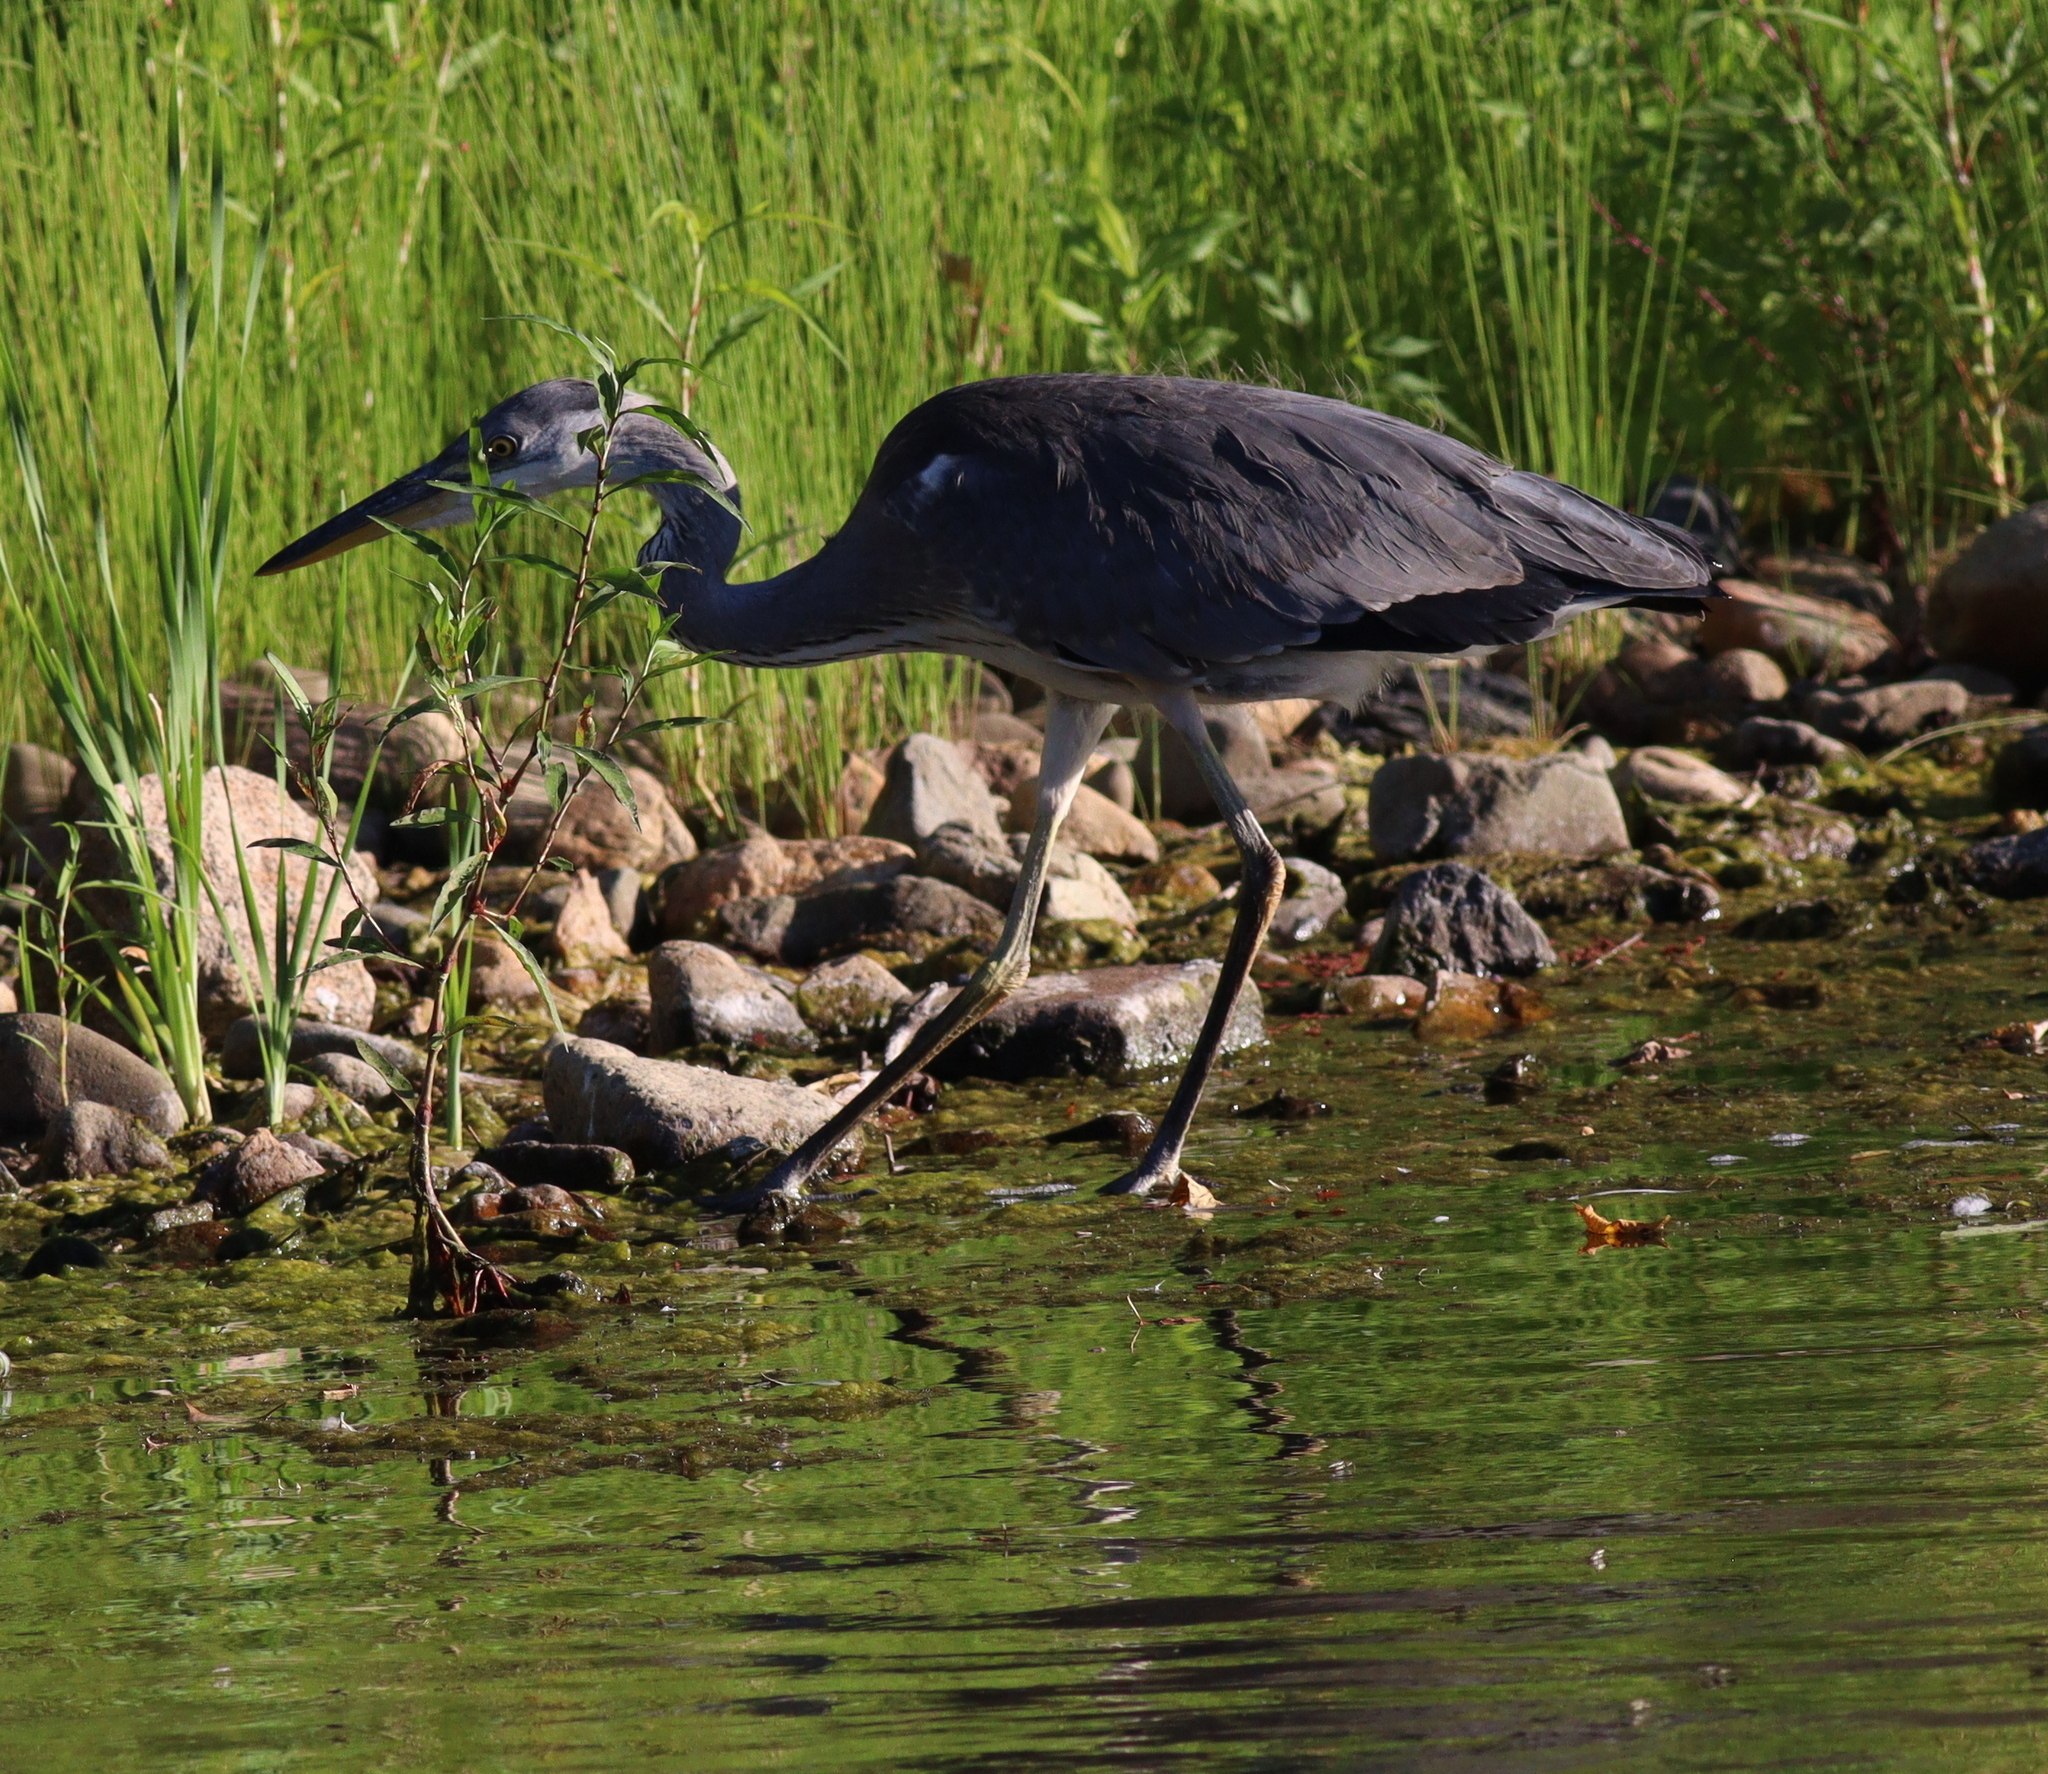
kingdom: Animalia
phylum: Chordata
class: Aves
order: Pelecaniformes
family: Ardeidae
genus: Ardea
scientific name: Ardea cinerea
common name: Grey heron
